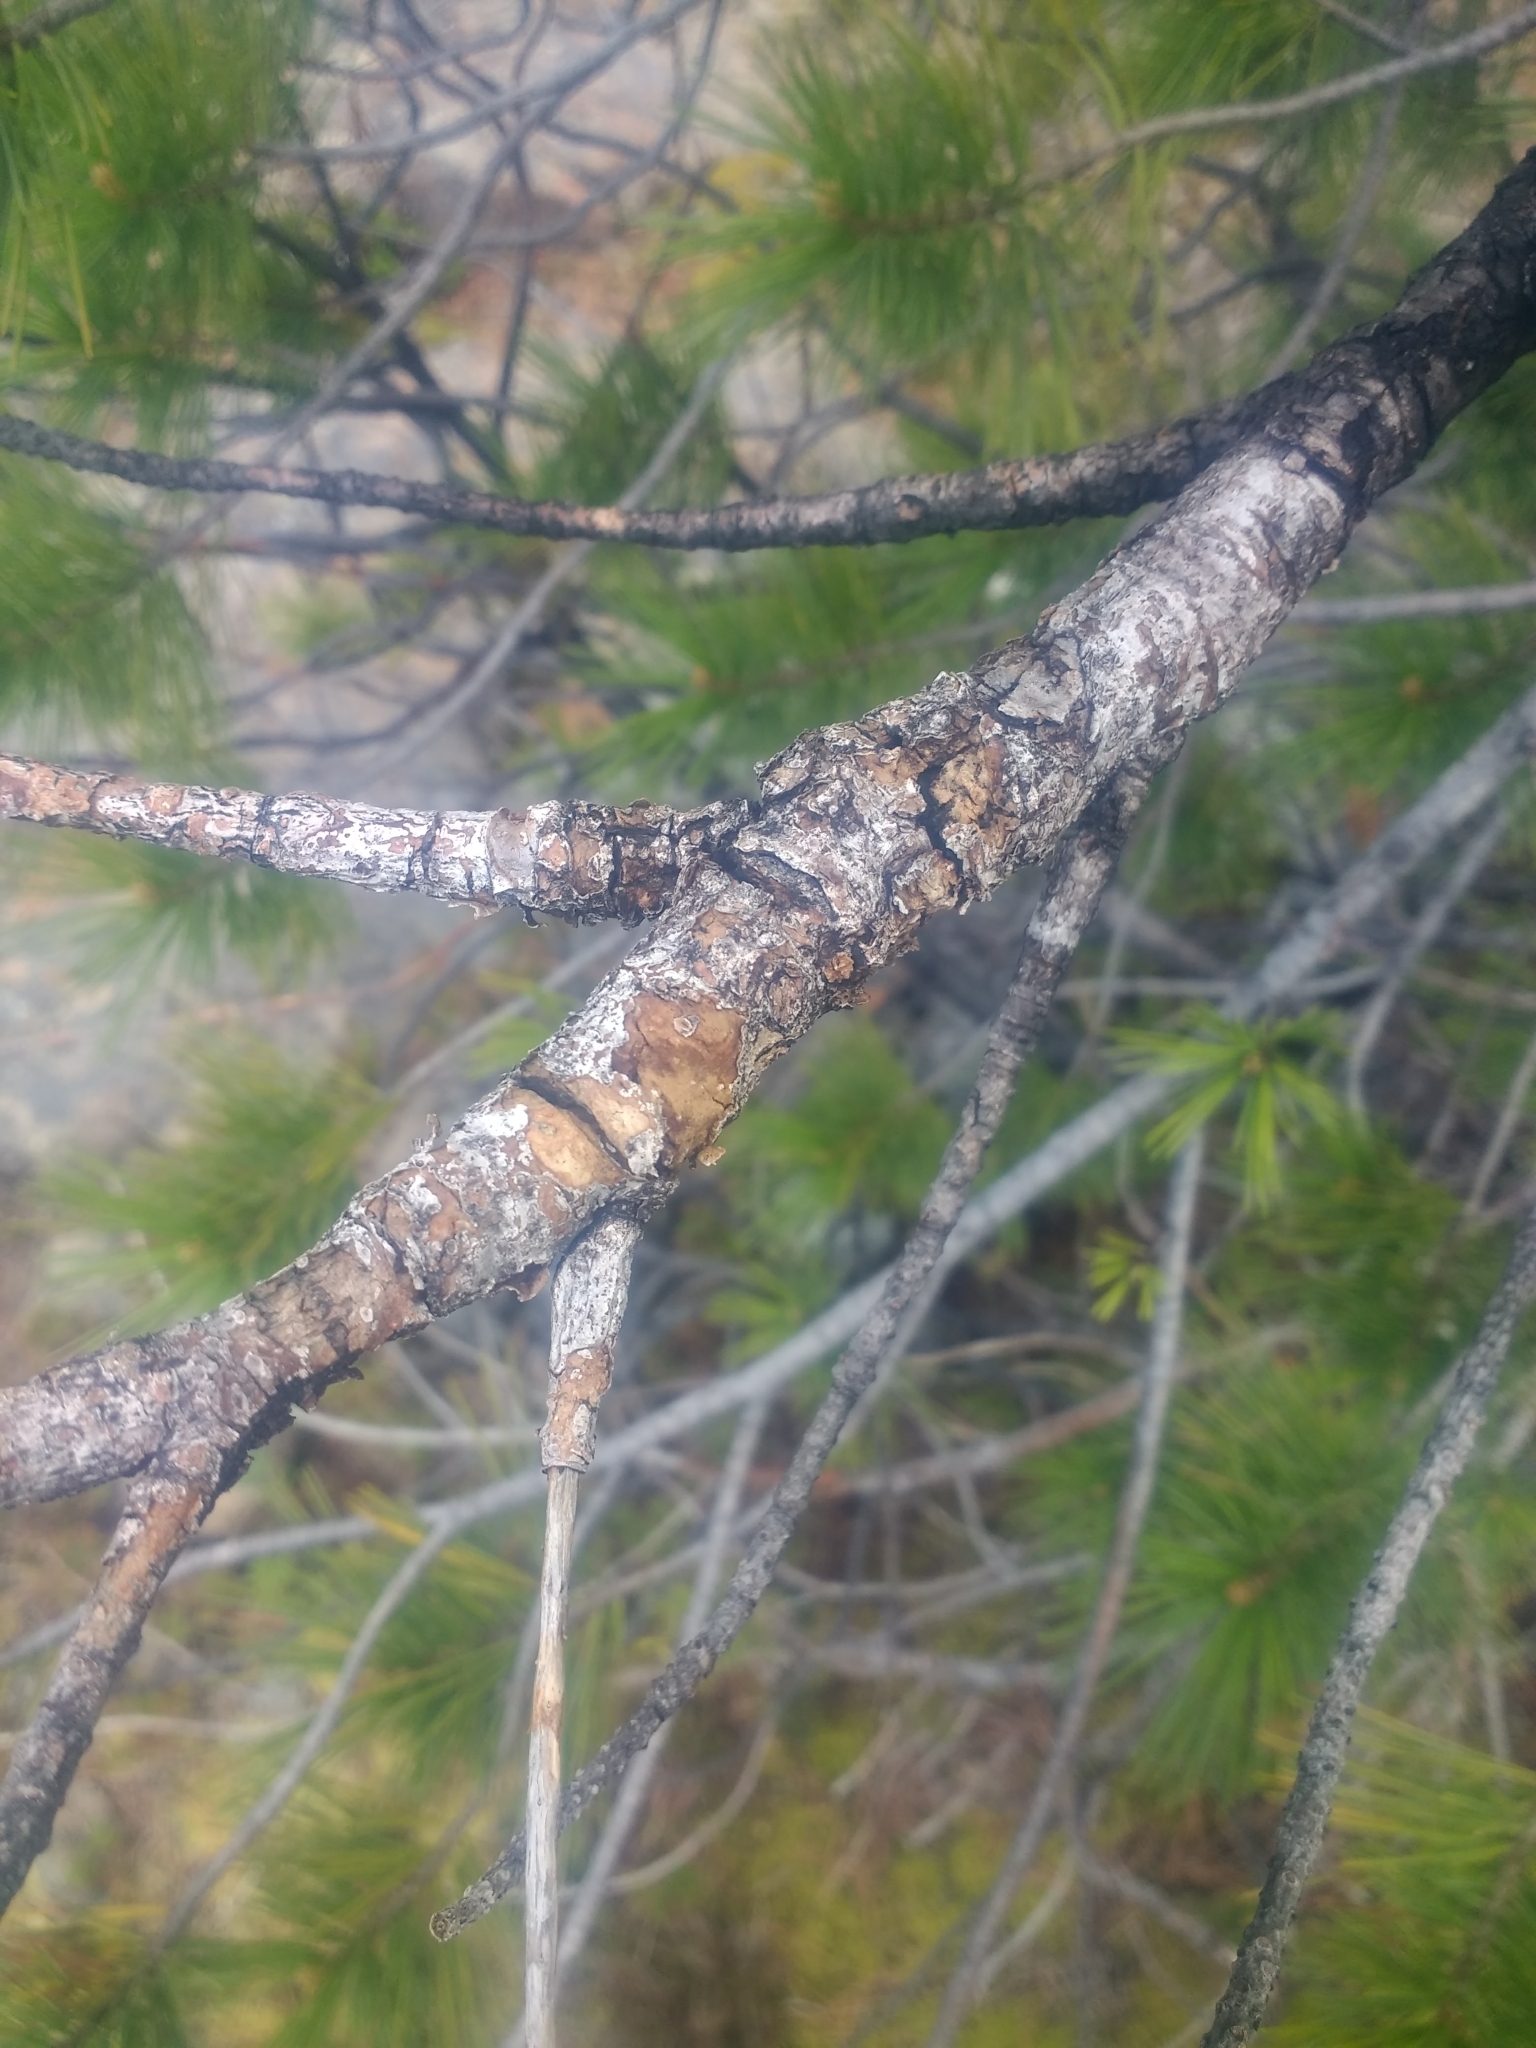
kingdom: Plantae
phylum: Tracheophyta
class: Pinopsida
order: Pinales
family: Pinaceae
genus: Pinus
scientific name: Pinus monticola
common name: Western white pine
